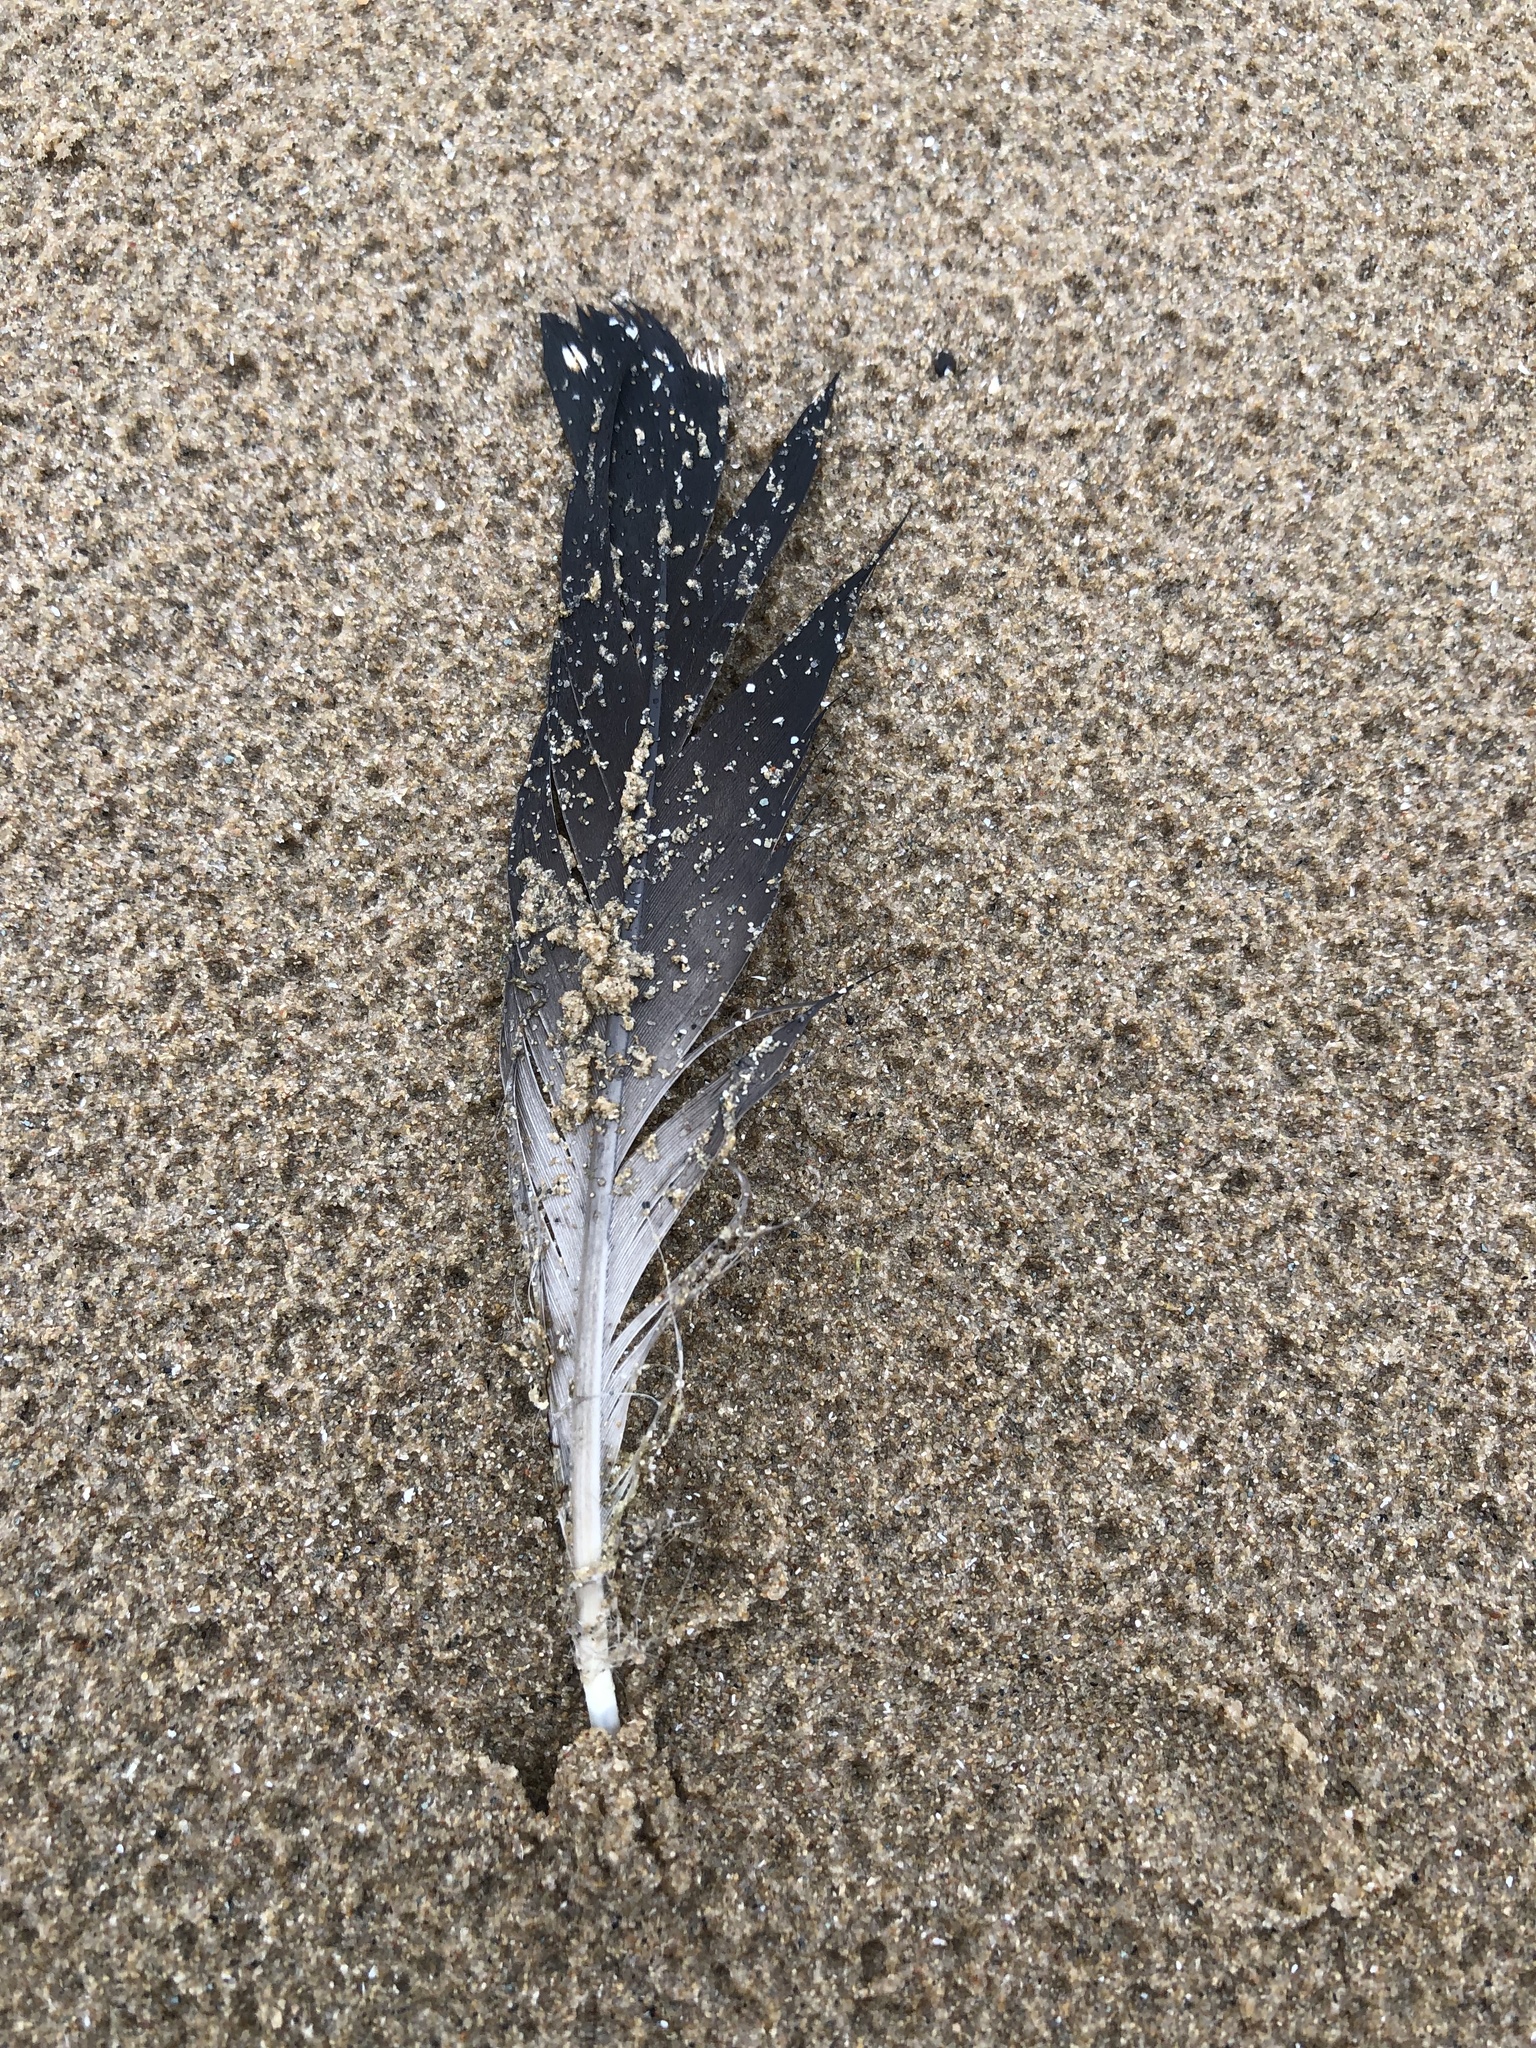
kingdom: Animalia
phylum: Chordata
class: Aves
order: Gaviiformes
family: Gaviidae
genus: Gavia
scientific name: Gavia immer
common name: Common loon
